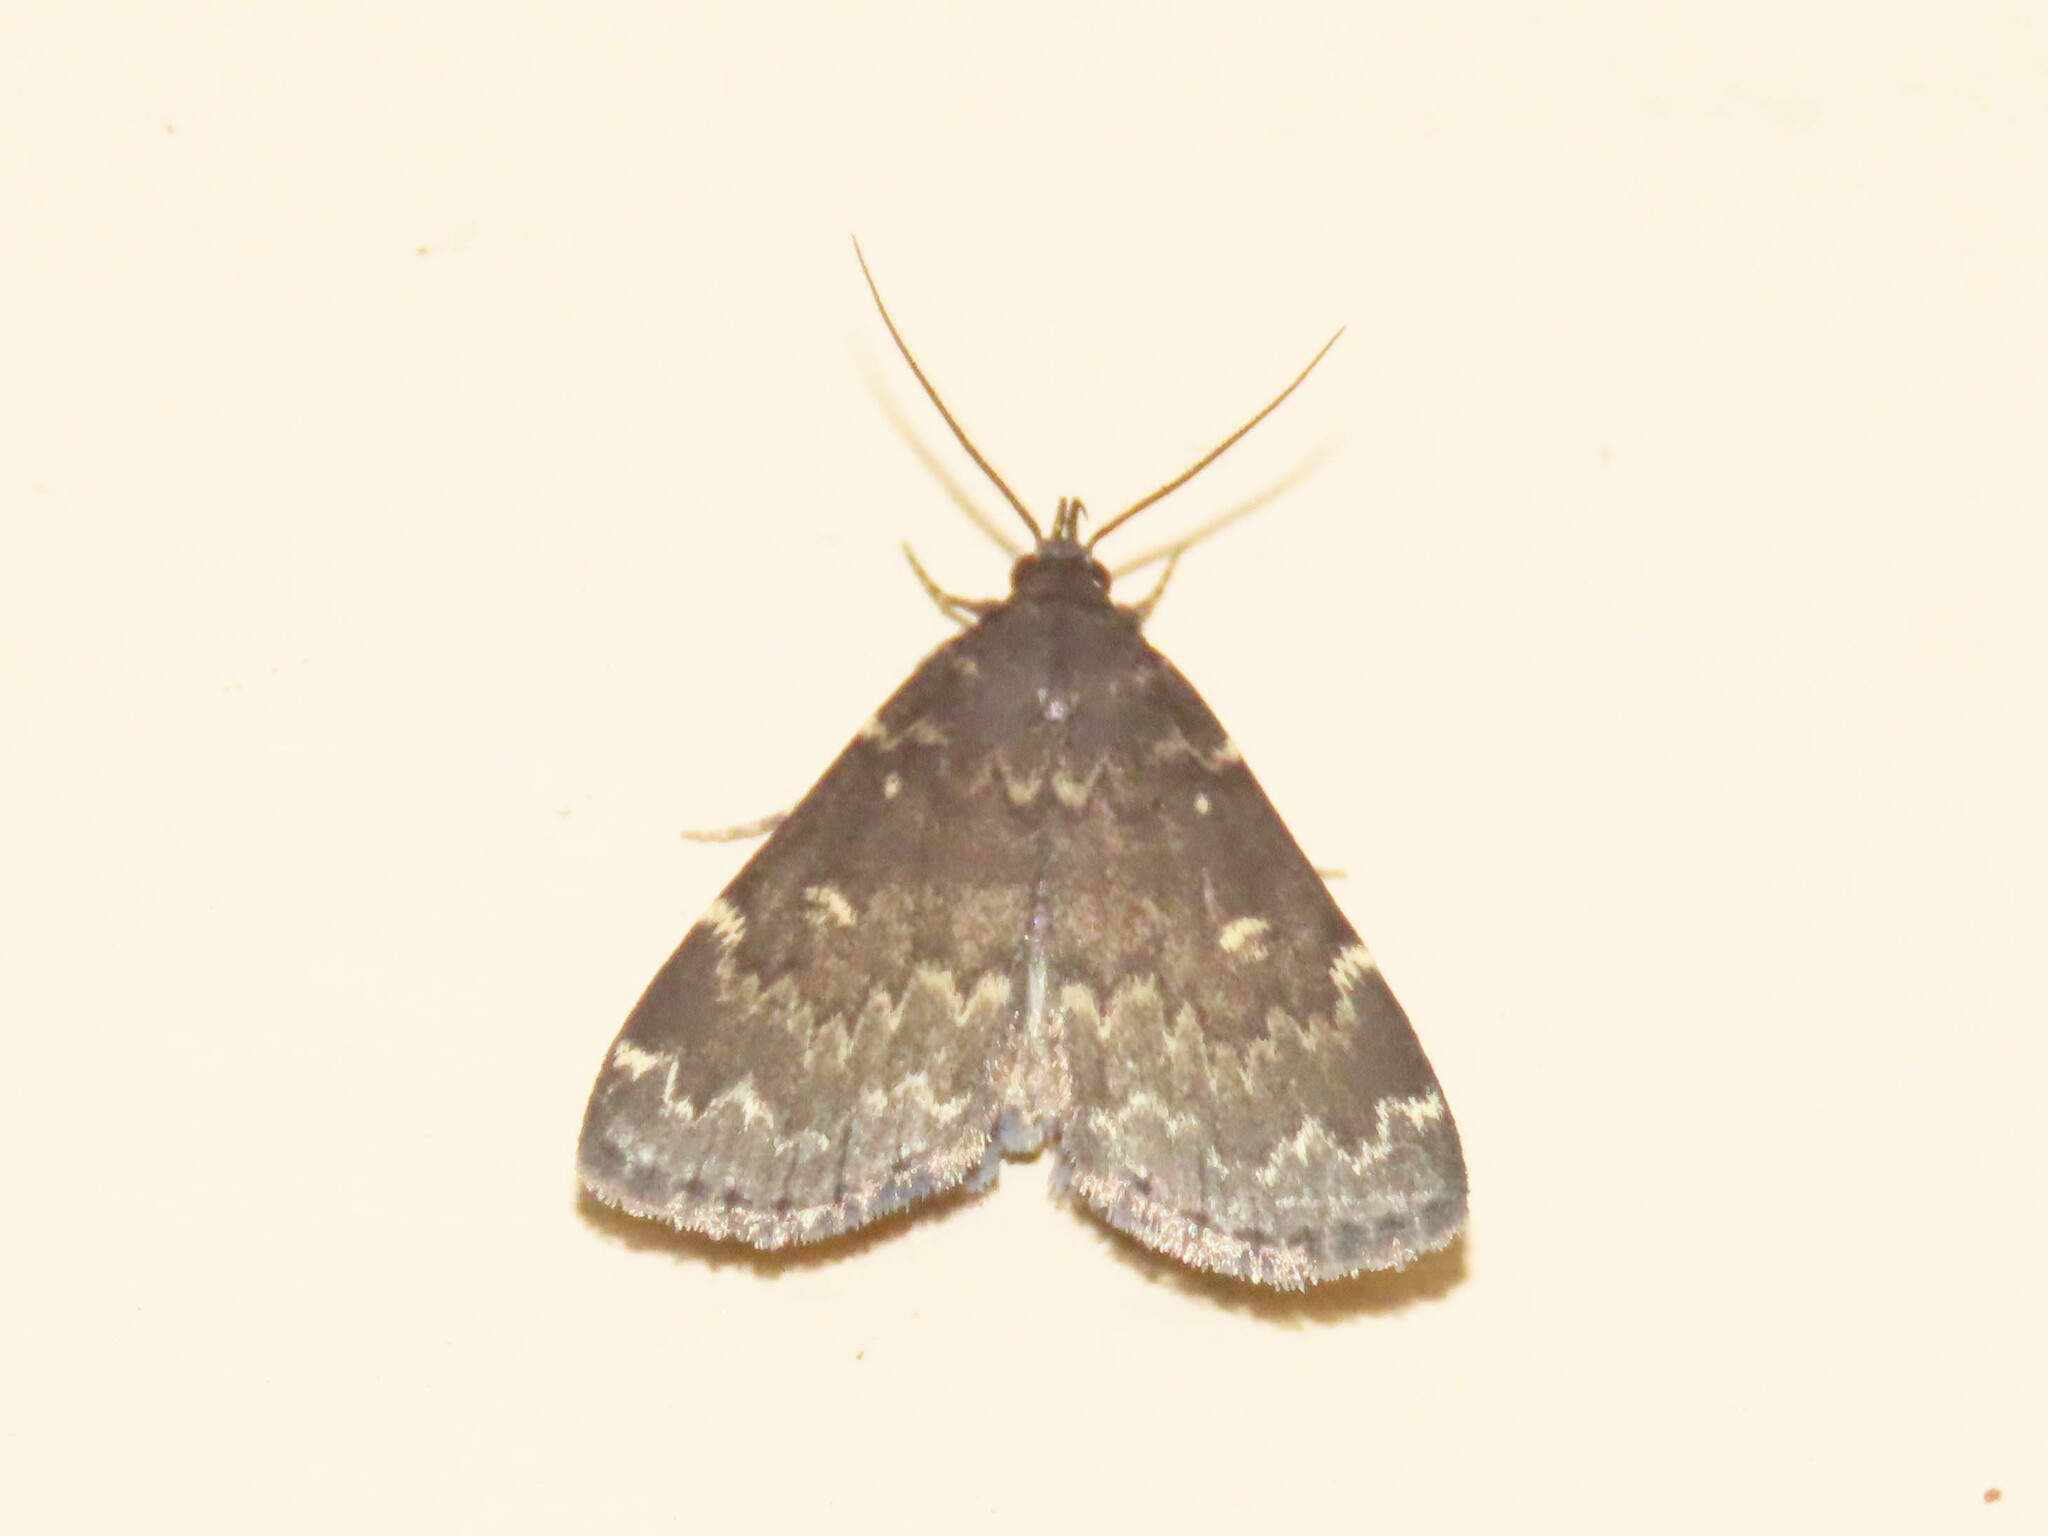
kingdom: Animalia
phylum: Arthropoda
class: Insecta
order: Lepidoptera
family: Erebidae
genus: Idia
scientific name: Idia lubricalis
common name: Twin-striped tabby
